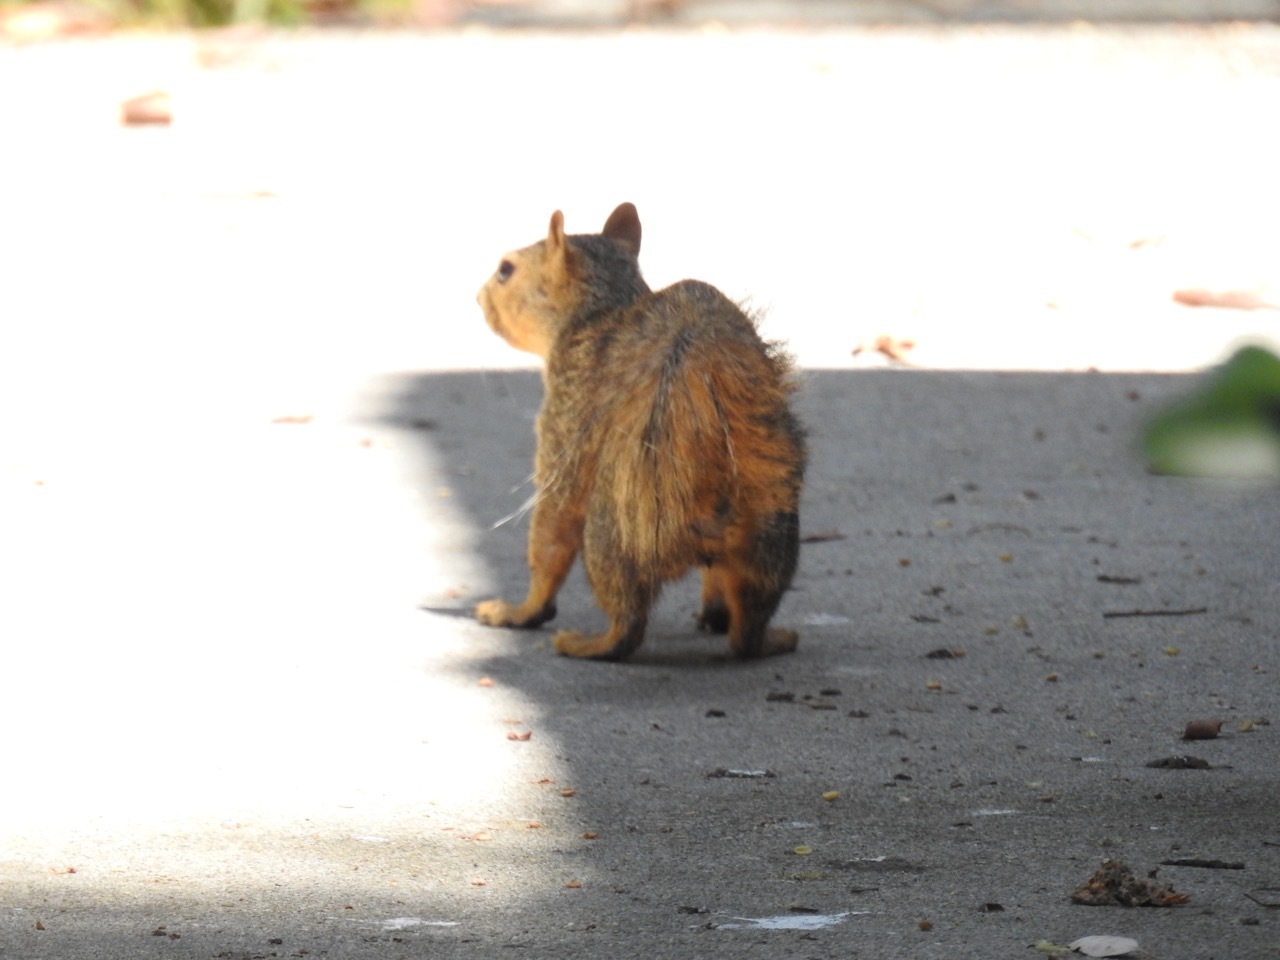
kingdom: Animalia
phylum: Chordata
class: Mammalia
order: Rodentia
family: Sciuridae
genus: Sciurus
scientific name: Sciurus niger
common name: Fox squirrel
